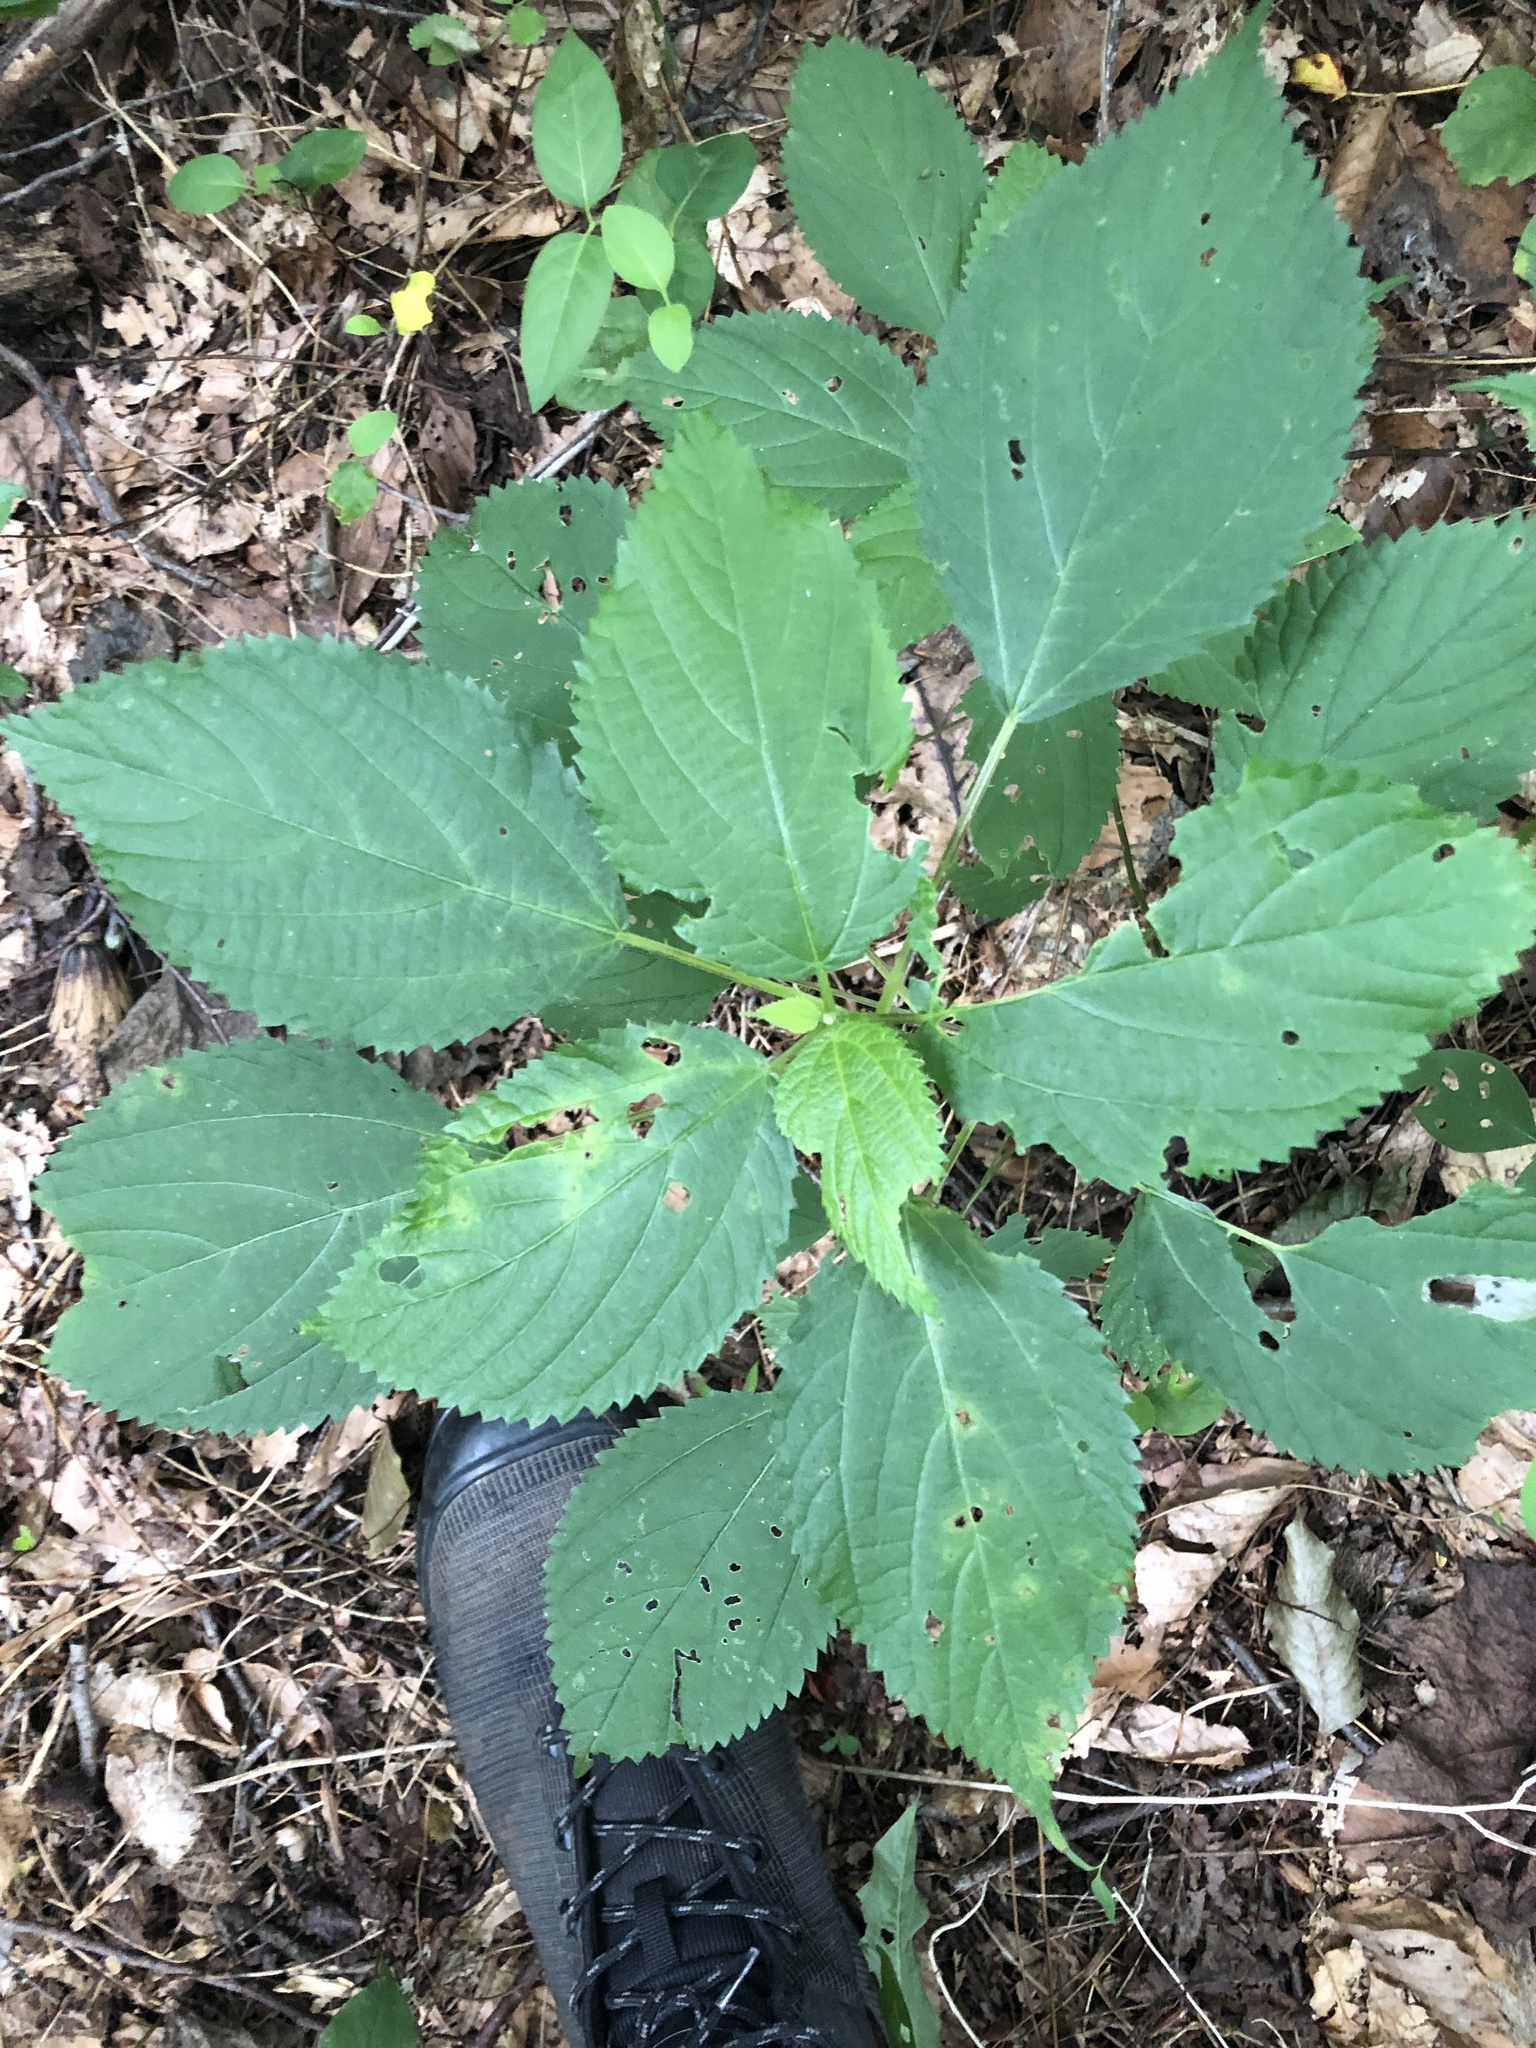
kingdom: Plantae
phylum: Tracheophyta
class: Magnoliopsida
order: Rosales
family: Urticaceae
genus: Laportea
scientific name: Laportea canadensis
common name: Canada nettle
